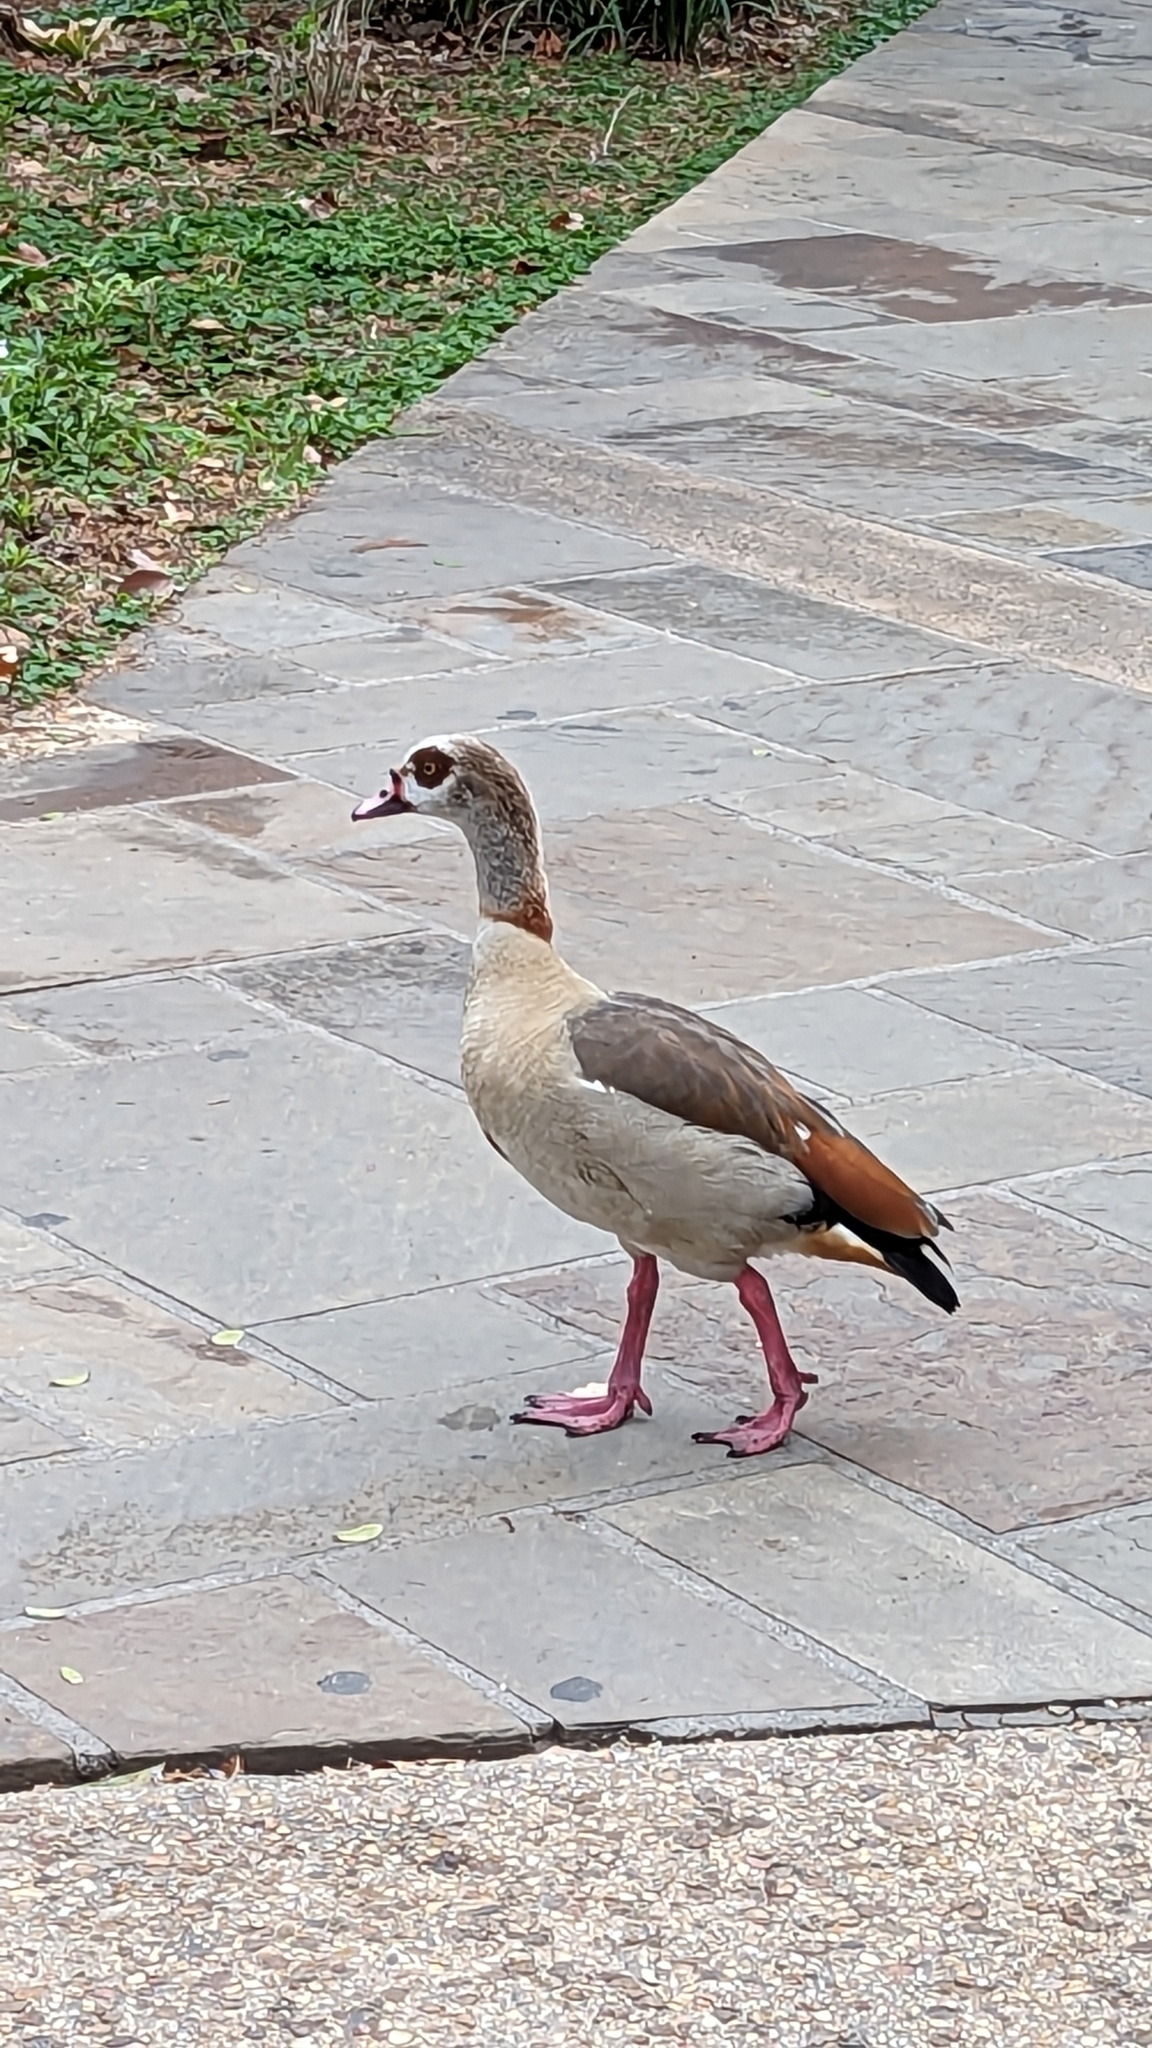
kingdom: Animalia
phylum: Chordata
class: Aves
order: Anseriformes
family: Anatidae
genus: Alopochen
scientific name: Alopochen aegyptiaca
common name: Egyptian goose
